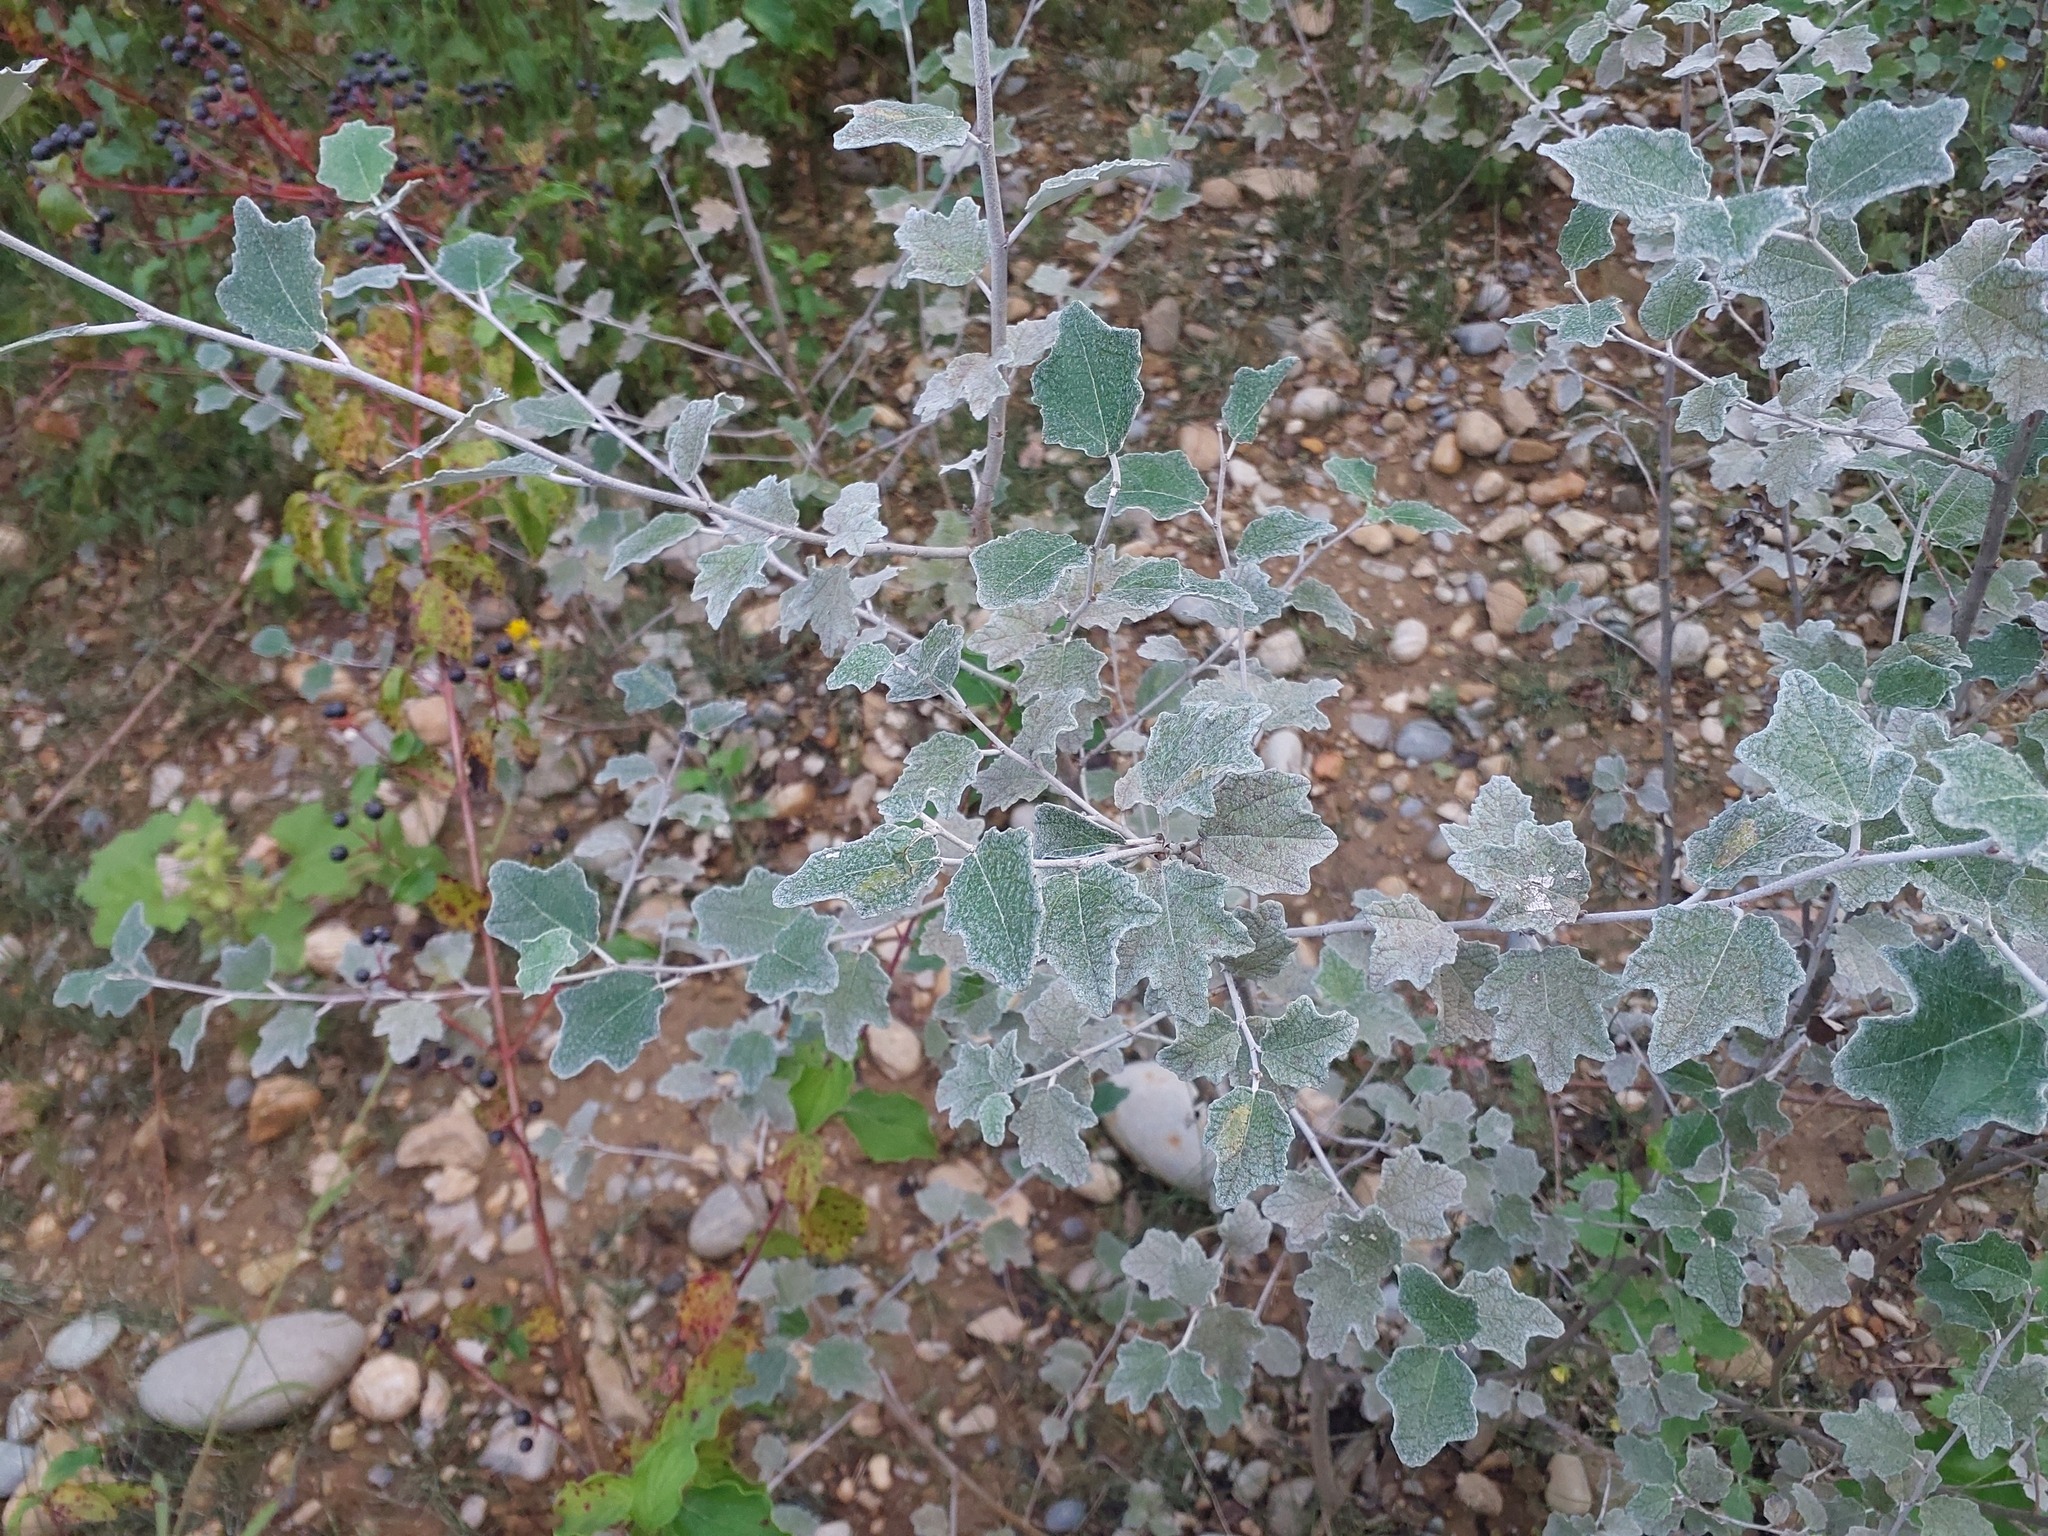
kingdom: Plantae
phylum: Tracheophyta
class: Magnoliopsida
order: Malpighiales
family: Salicaceae
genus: Populus
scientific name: Populus alba
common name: White poplar
